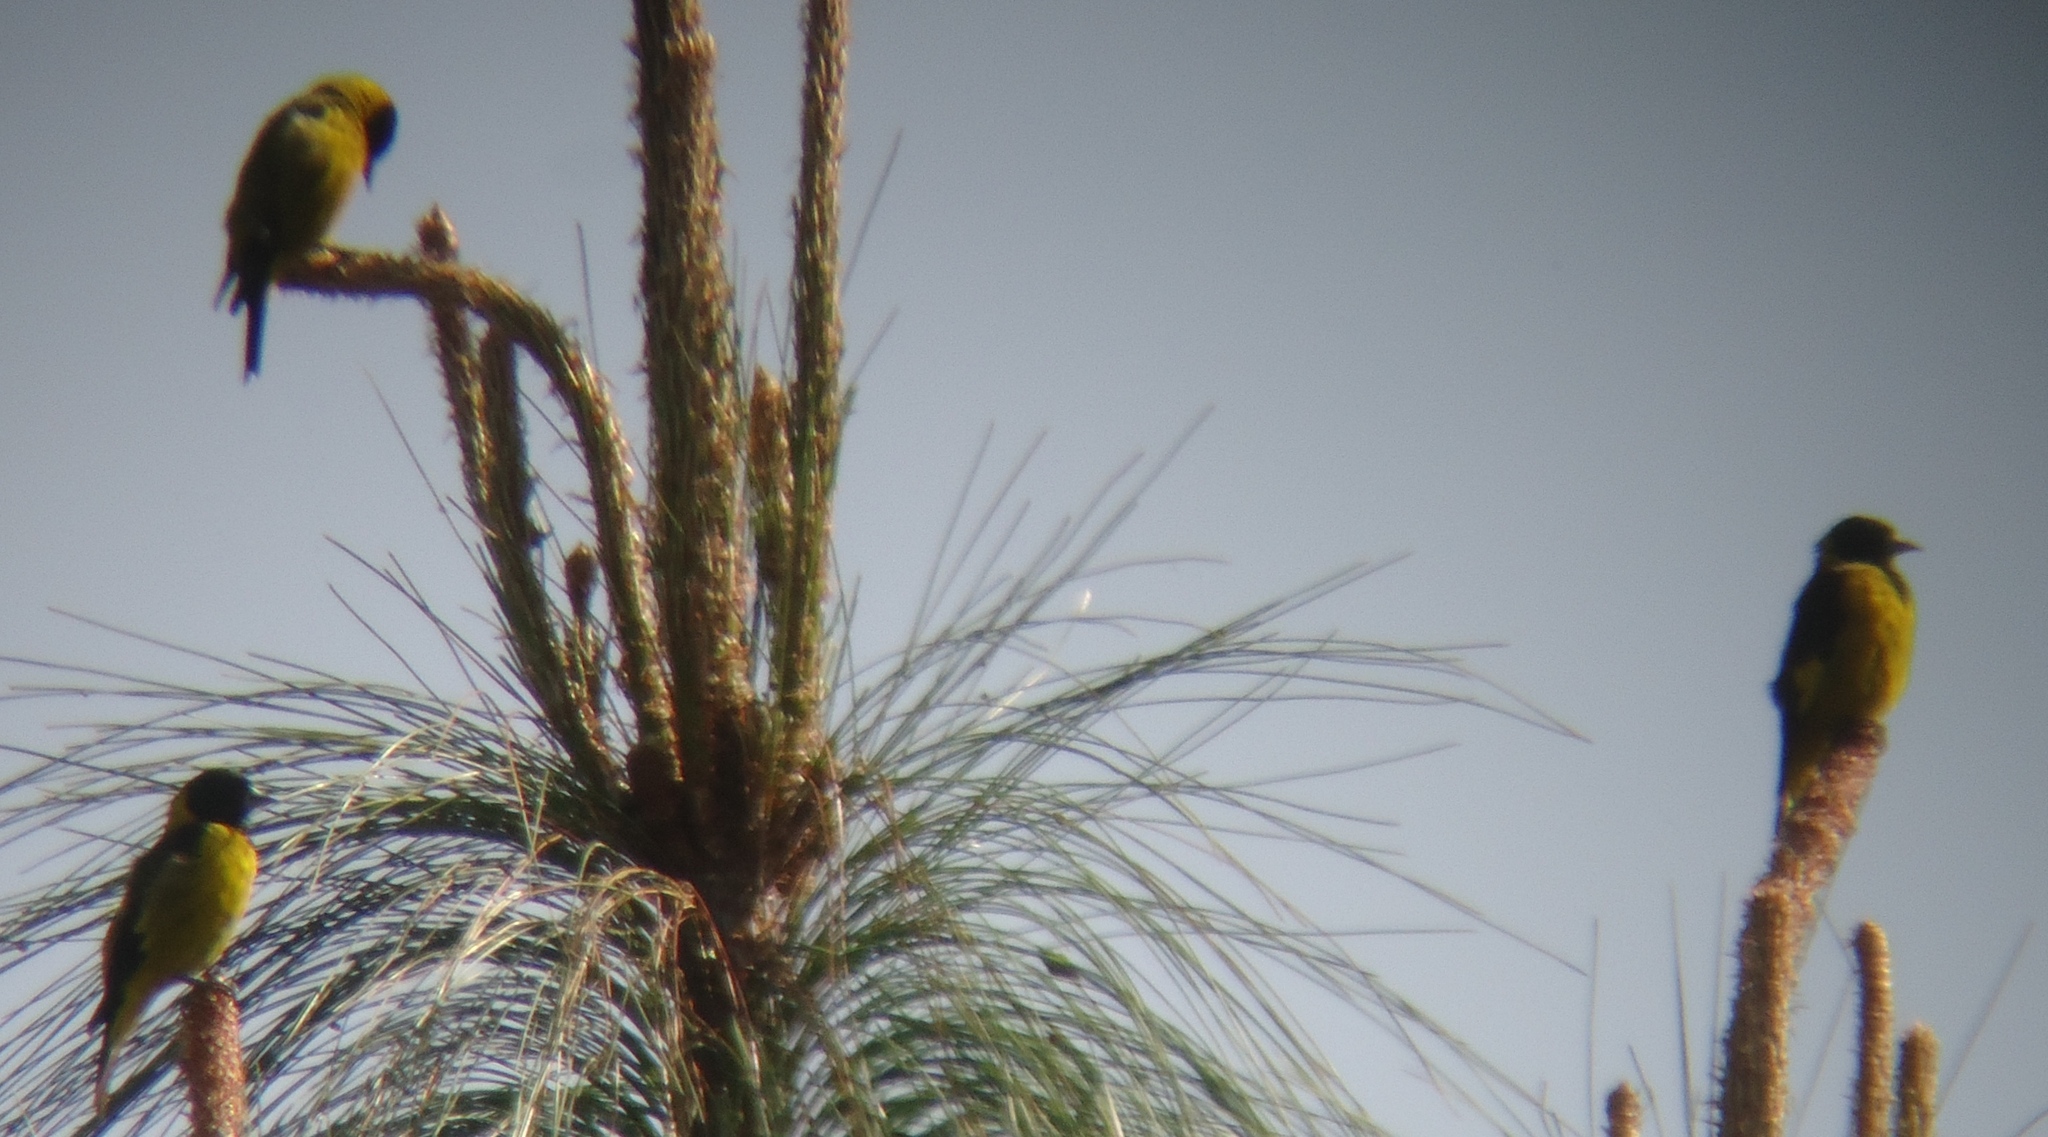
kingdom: Animalia
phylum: Chordata
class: Aves
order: Passeriformes
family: Fringillidae
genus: Spinus
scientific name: Spinus notatus
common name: Black-headed siskin
